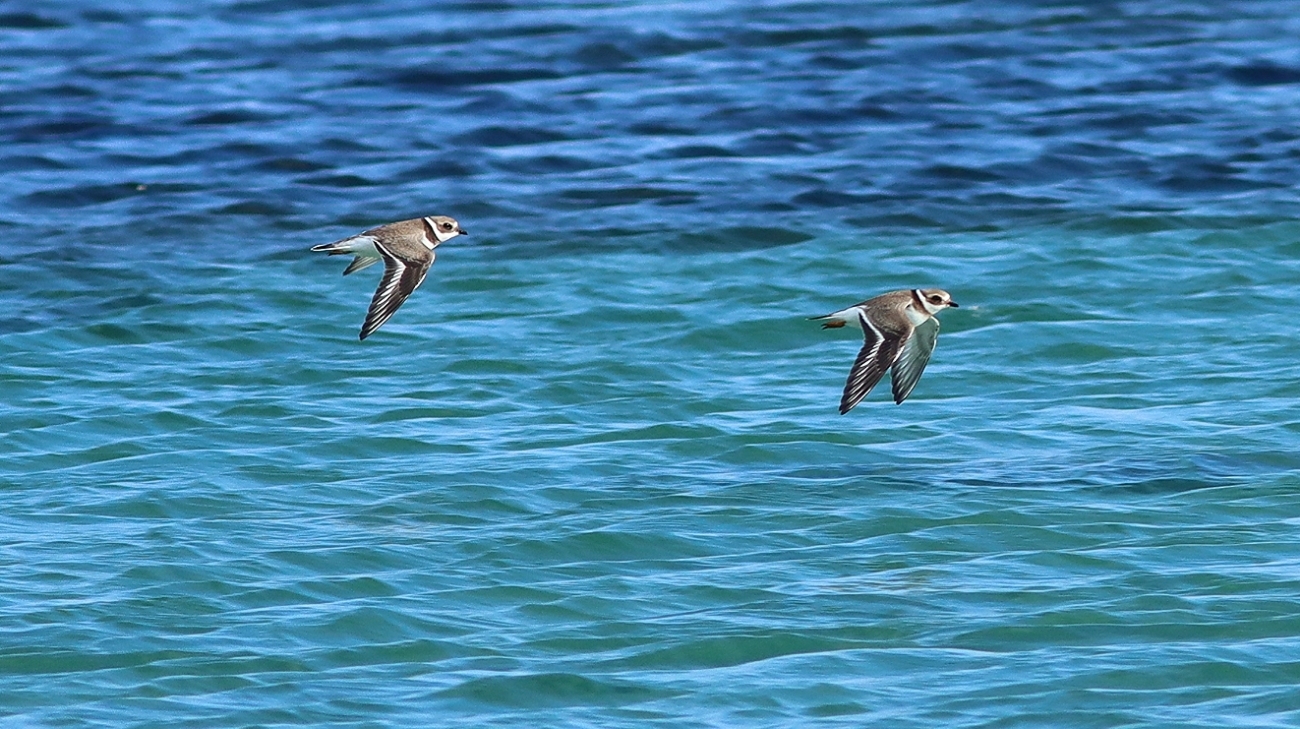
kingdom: Animalia
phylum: Chordata
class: Aves
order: Charadriiformes
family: Charadriidae
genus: Charadrius
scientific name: Charadrius hiaticula
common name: Common ringed plover
